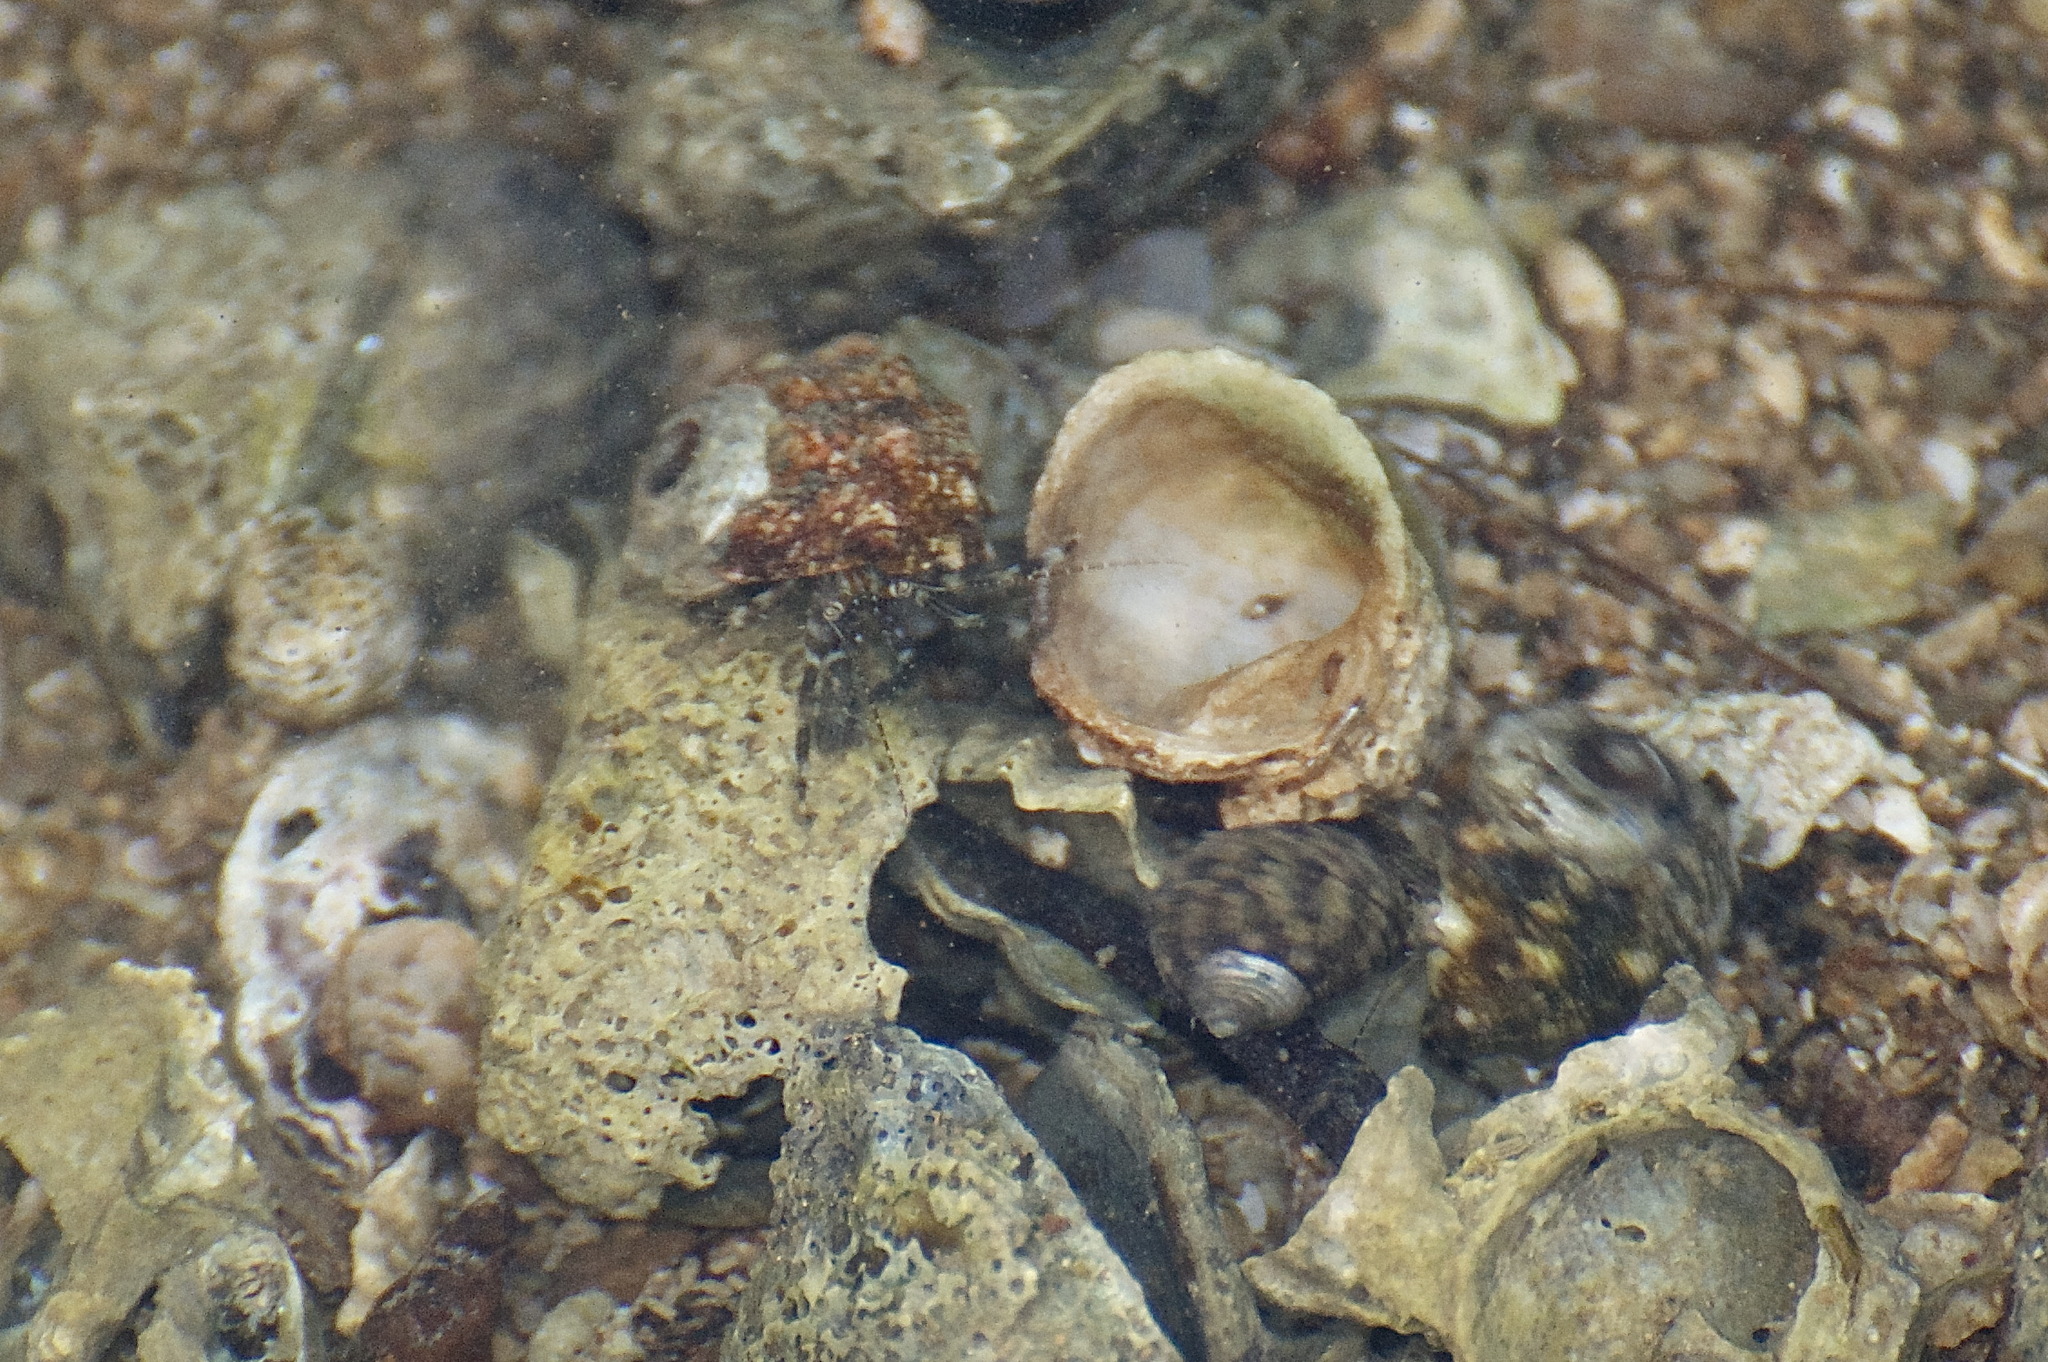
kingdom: Animalia
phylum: Arthropoda
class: Malacostraca
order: Decapoda
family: Paguridae
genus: Pagurus
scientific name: Pagurus angustus
